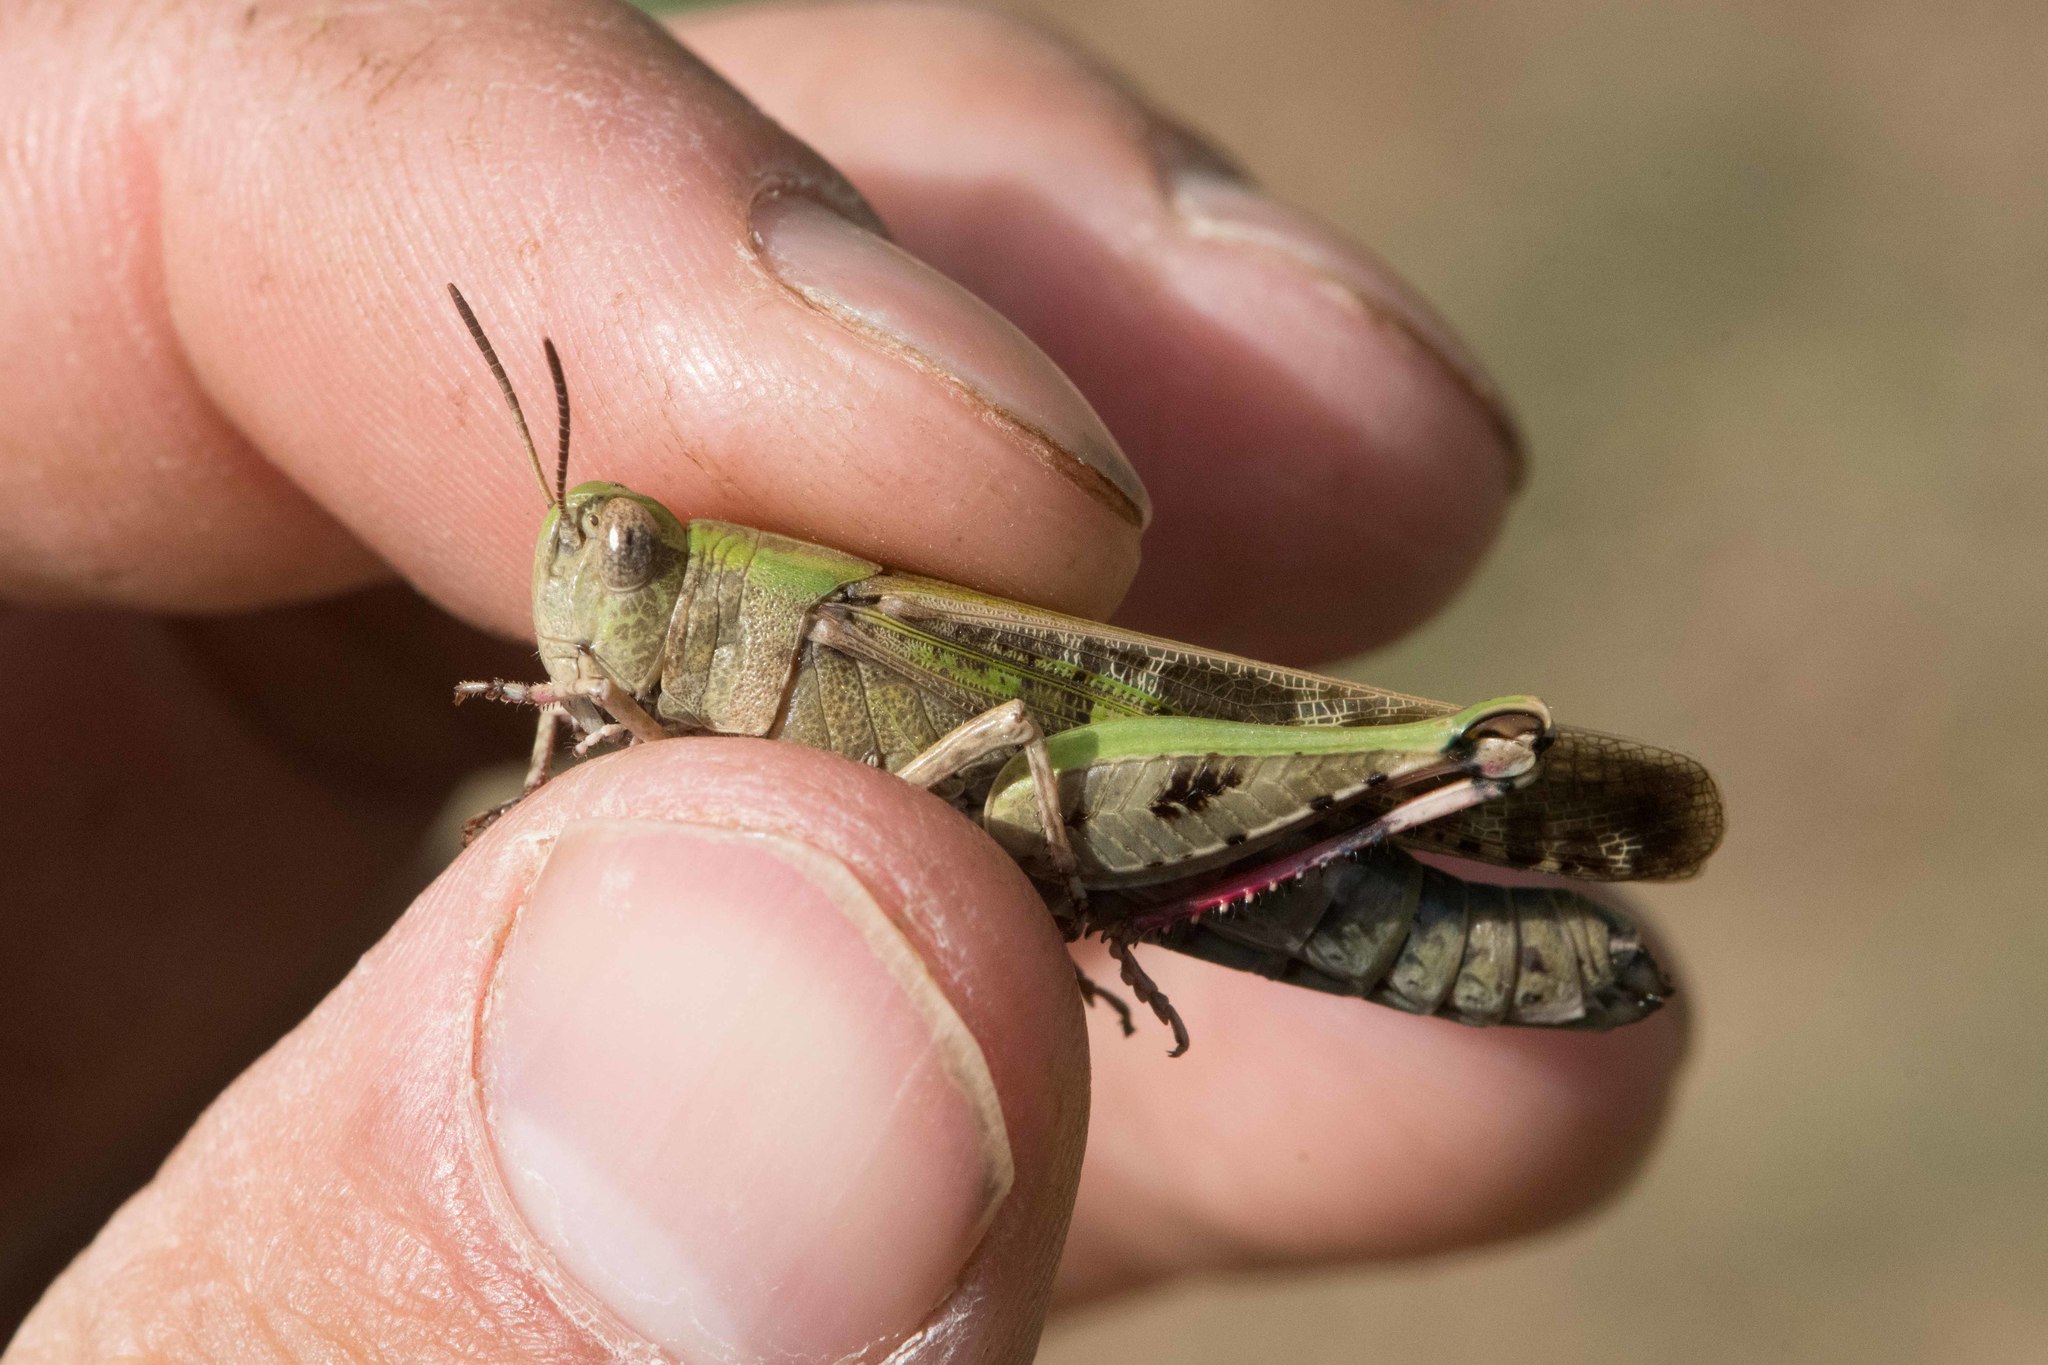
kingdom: Animalia
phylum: Arthropoda
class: Insecta
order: Orthoptera
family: Acrididae
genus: Aiolopus
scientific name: Aiolopus strepens
